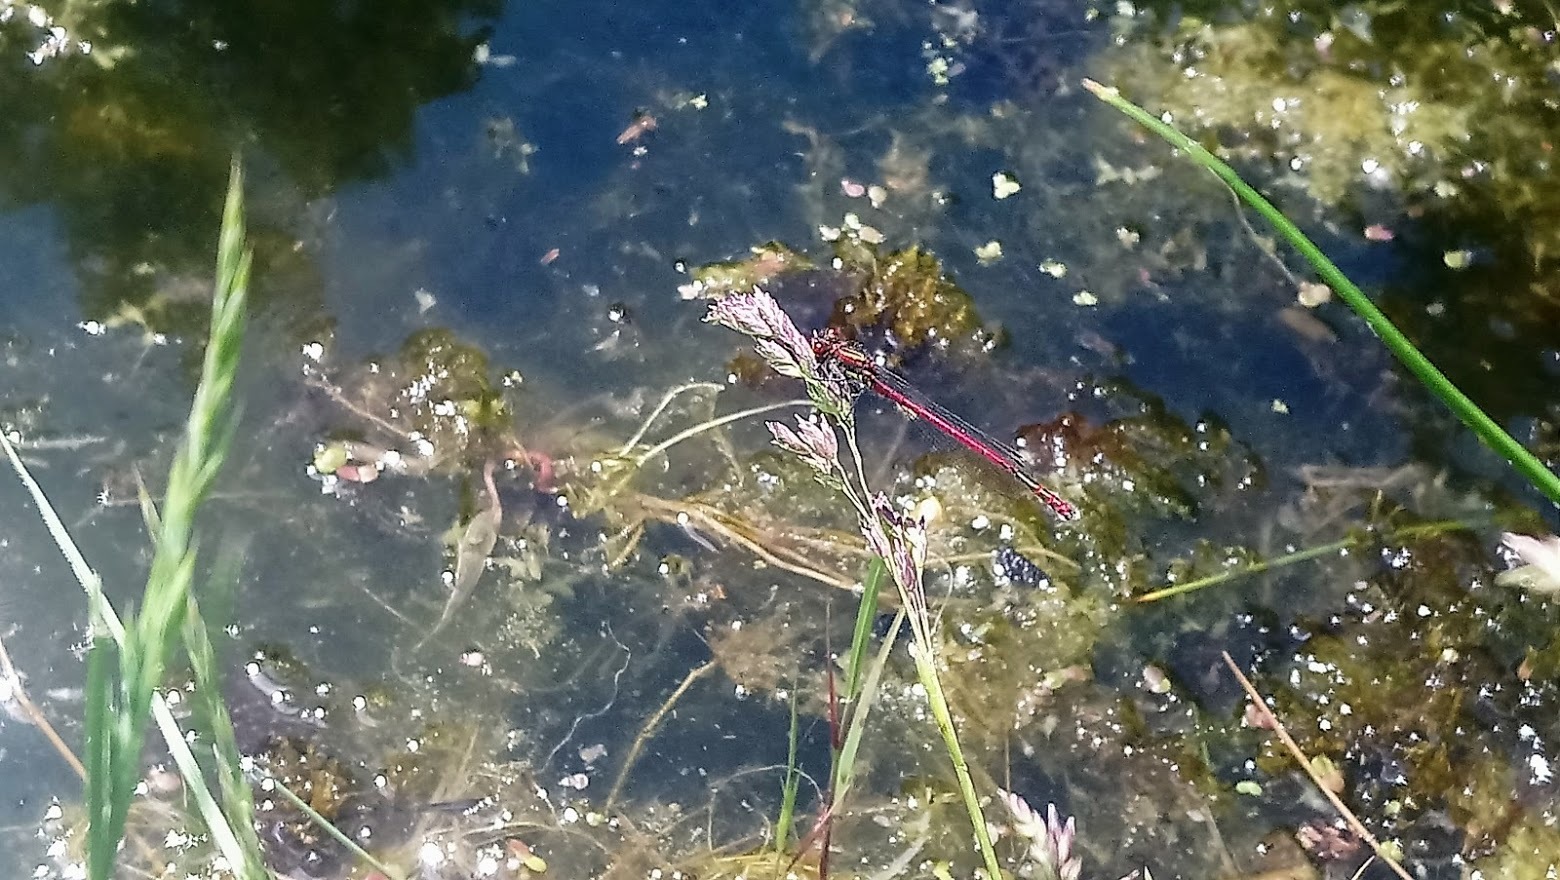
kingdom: Animalia
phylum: Arthropoda
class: Insecta
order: Odonata
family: Coenagrionidae
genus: Pyrrhosoma
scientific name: Pyrrhosoma nymphula
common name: Large red damsel
